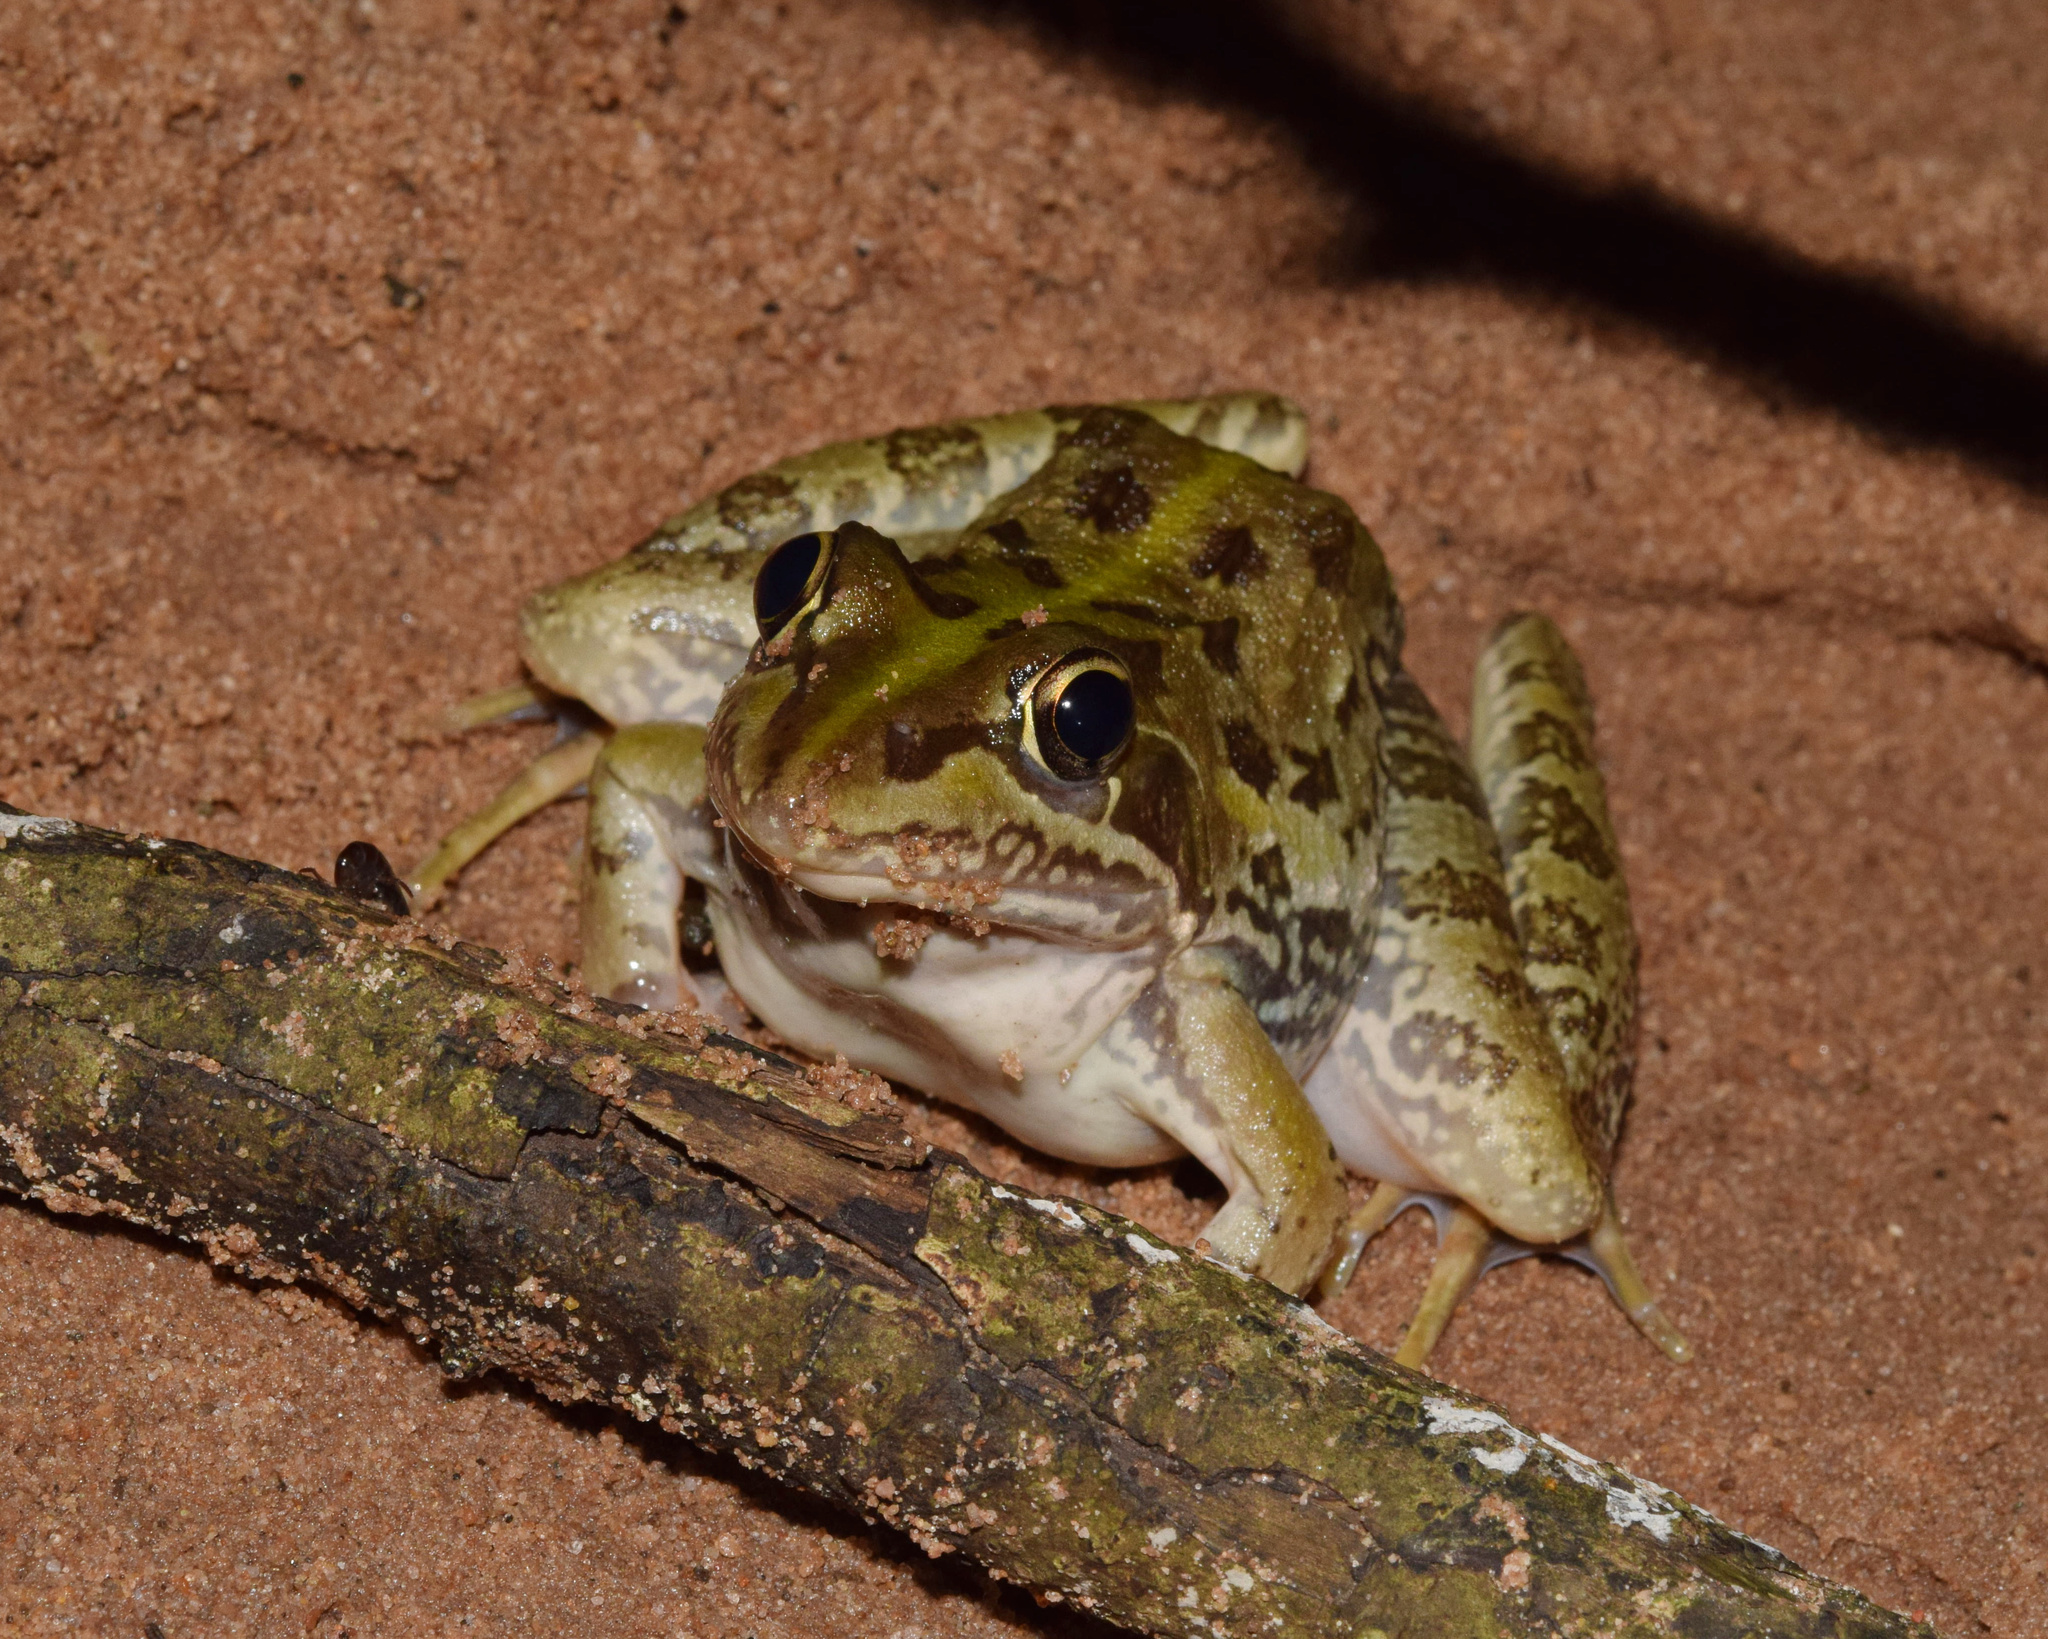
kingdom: Animalia
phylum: Chordata
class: Amphibia
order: Anura
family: Pyxicephalidae
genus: Amietia
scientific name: Amietia delalandii
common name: Delalande's river frog
